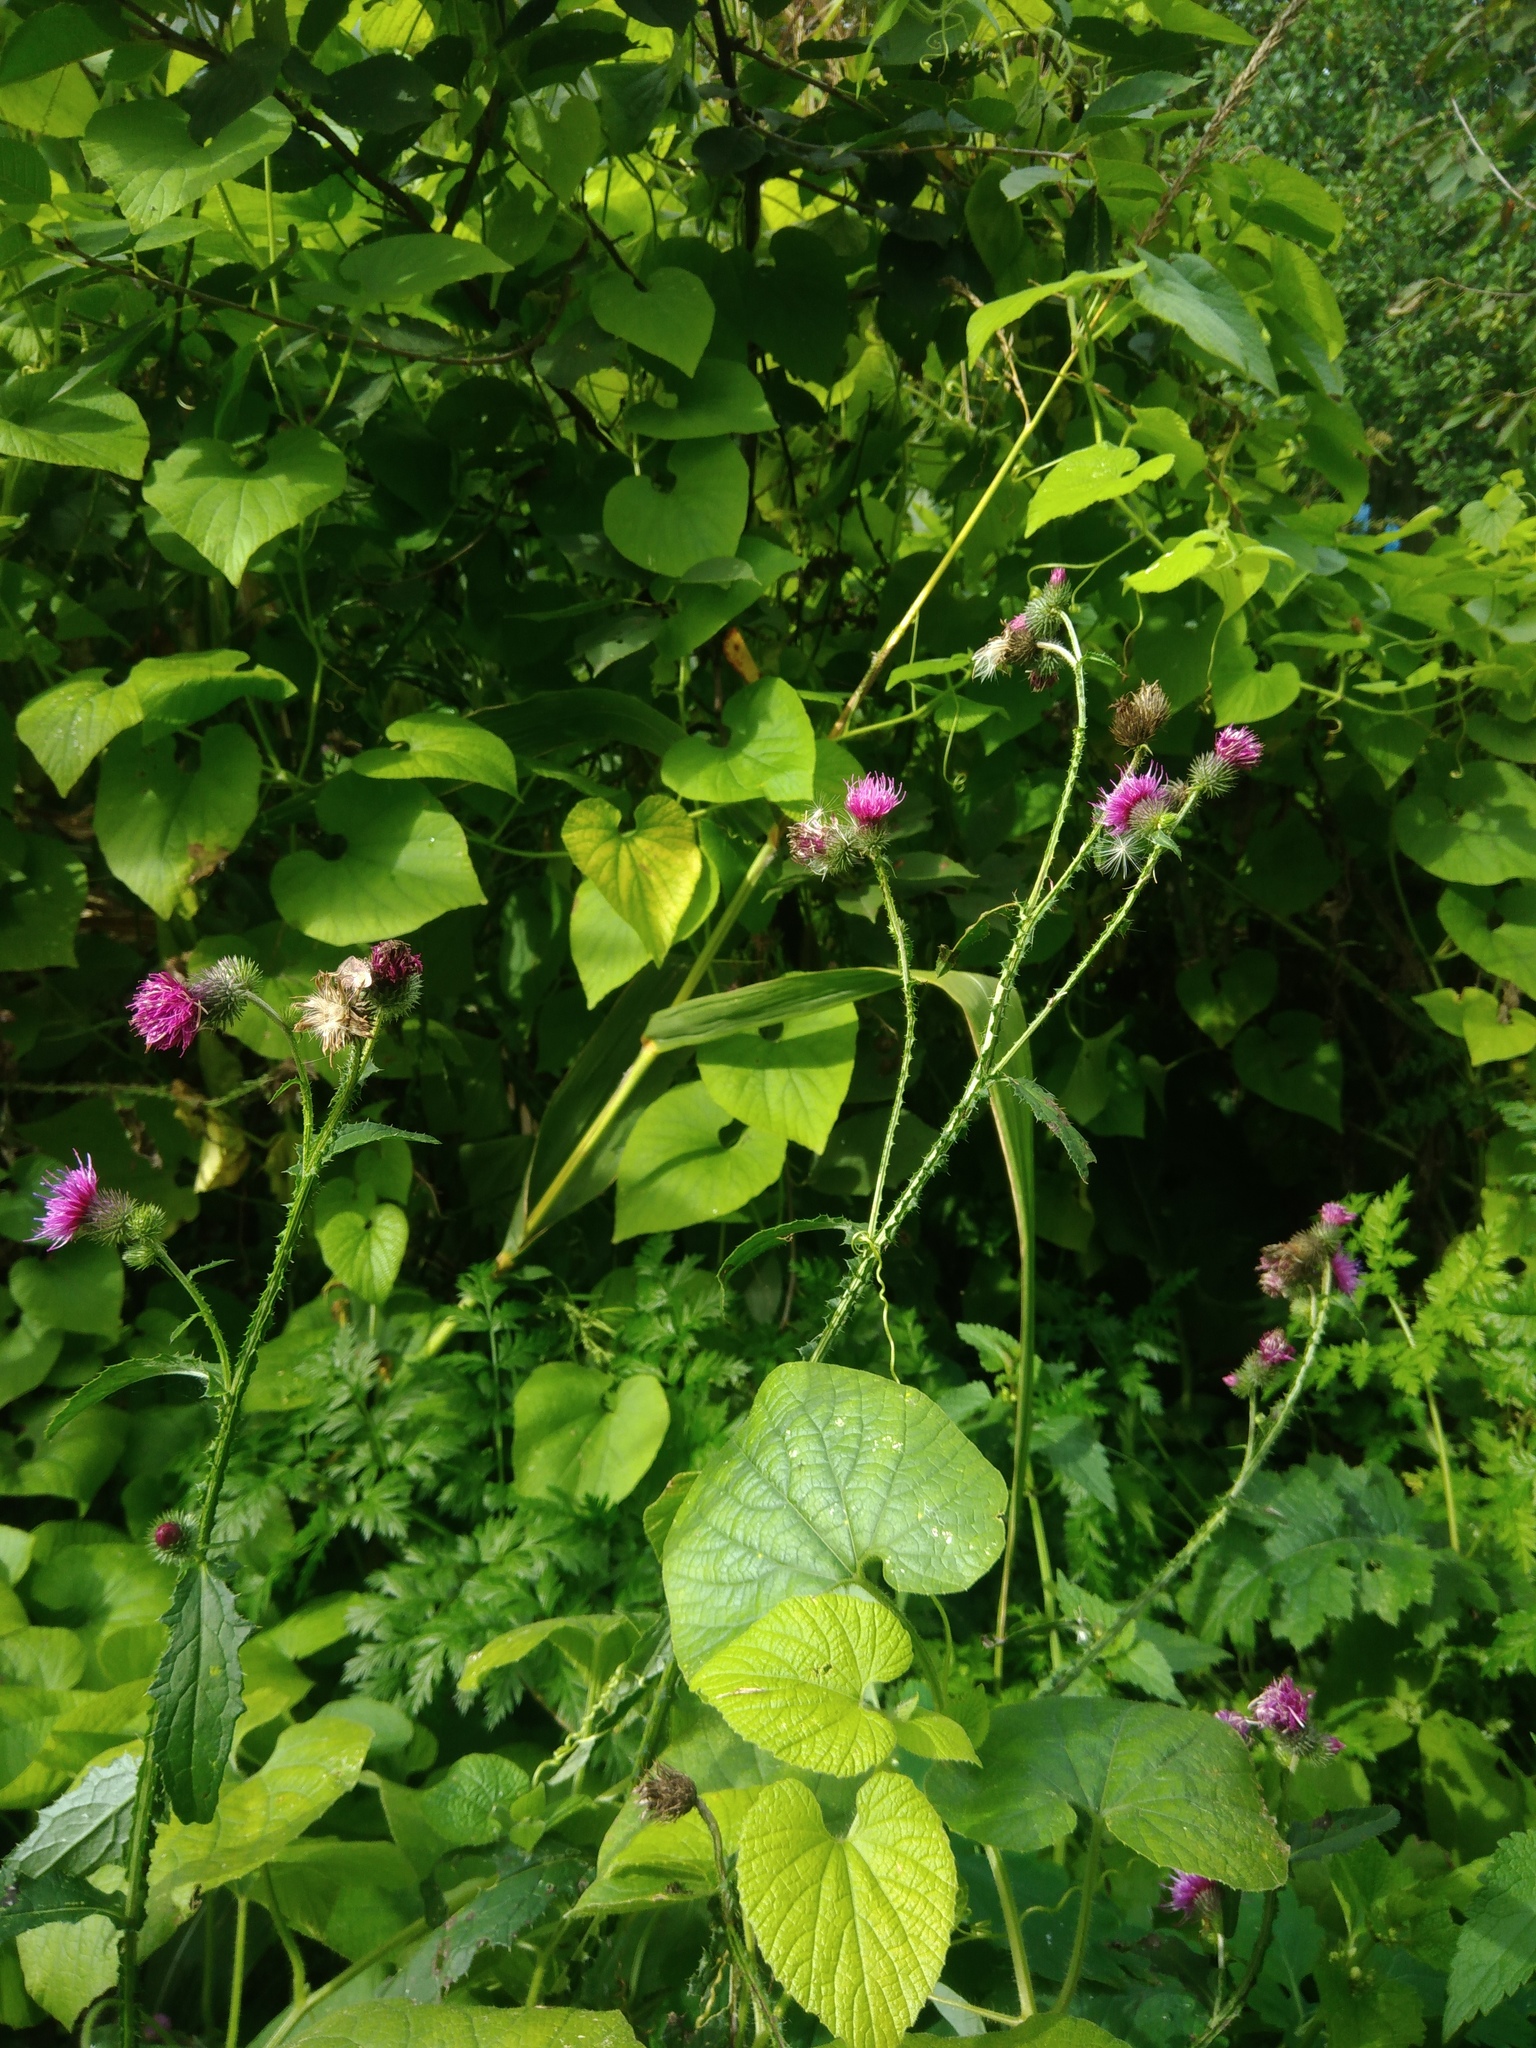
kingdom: Plantae
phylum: Tracheophyta
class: Magnoliopsida
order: Asterales
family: Asteraceae
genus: Carduus
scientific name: Carduus crispus
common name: Welted thistle
